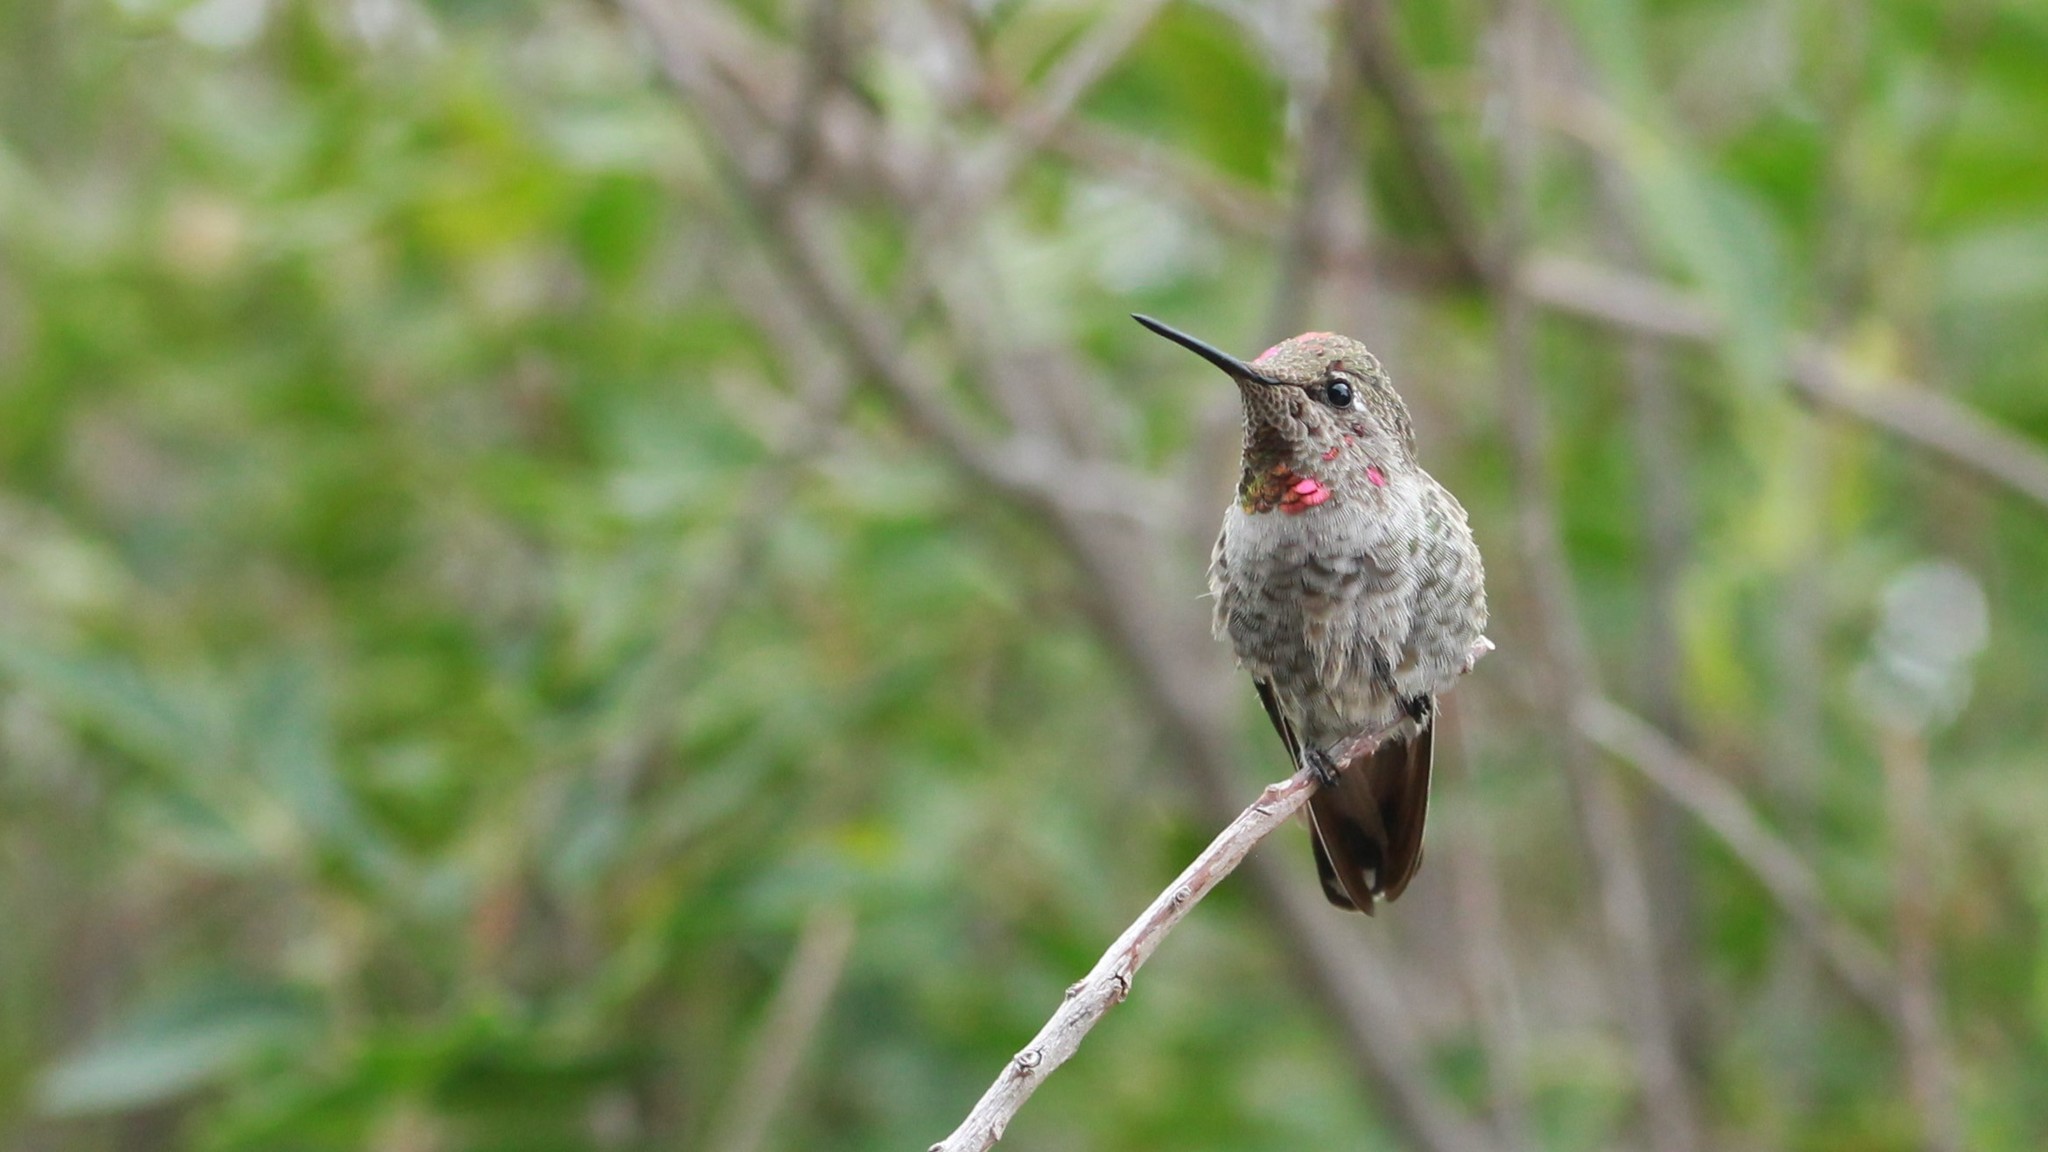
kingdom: Animalia
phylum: Chordata
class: Aves
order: Apodiformes
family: Trochilidae
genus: Calypte
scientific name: Calypte anna
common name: Anna's hummingbird
